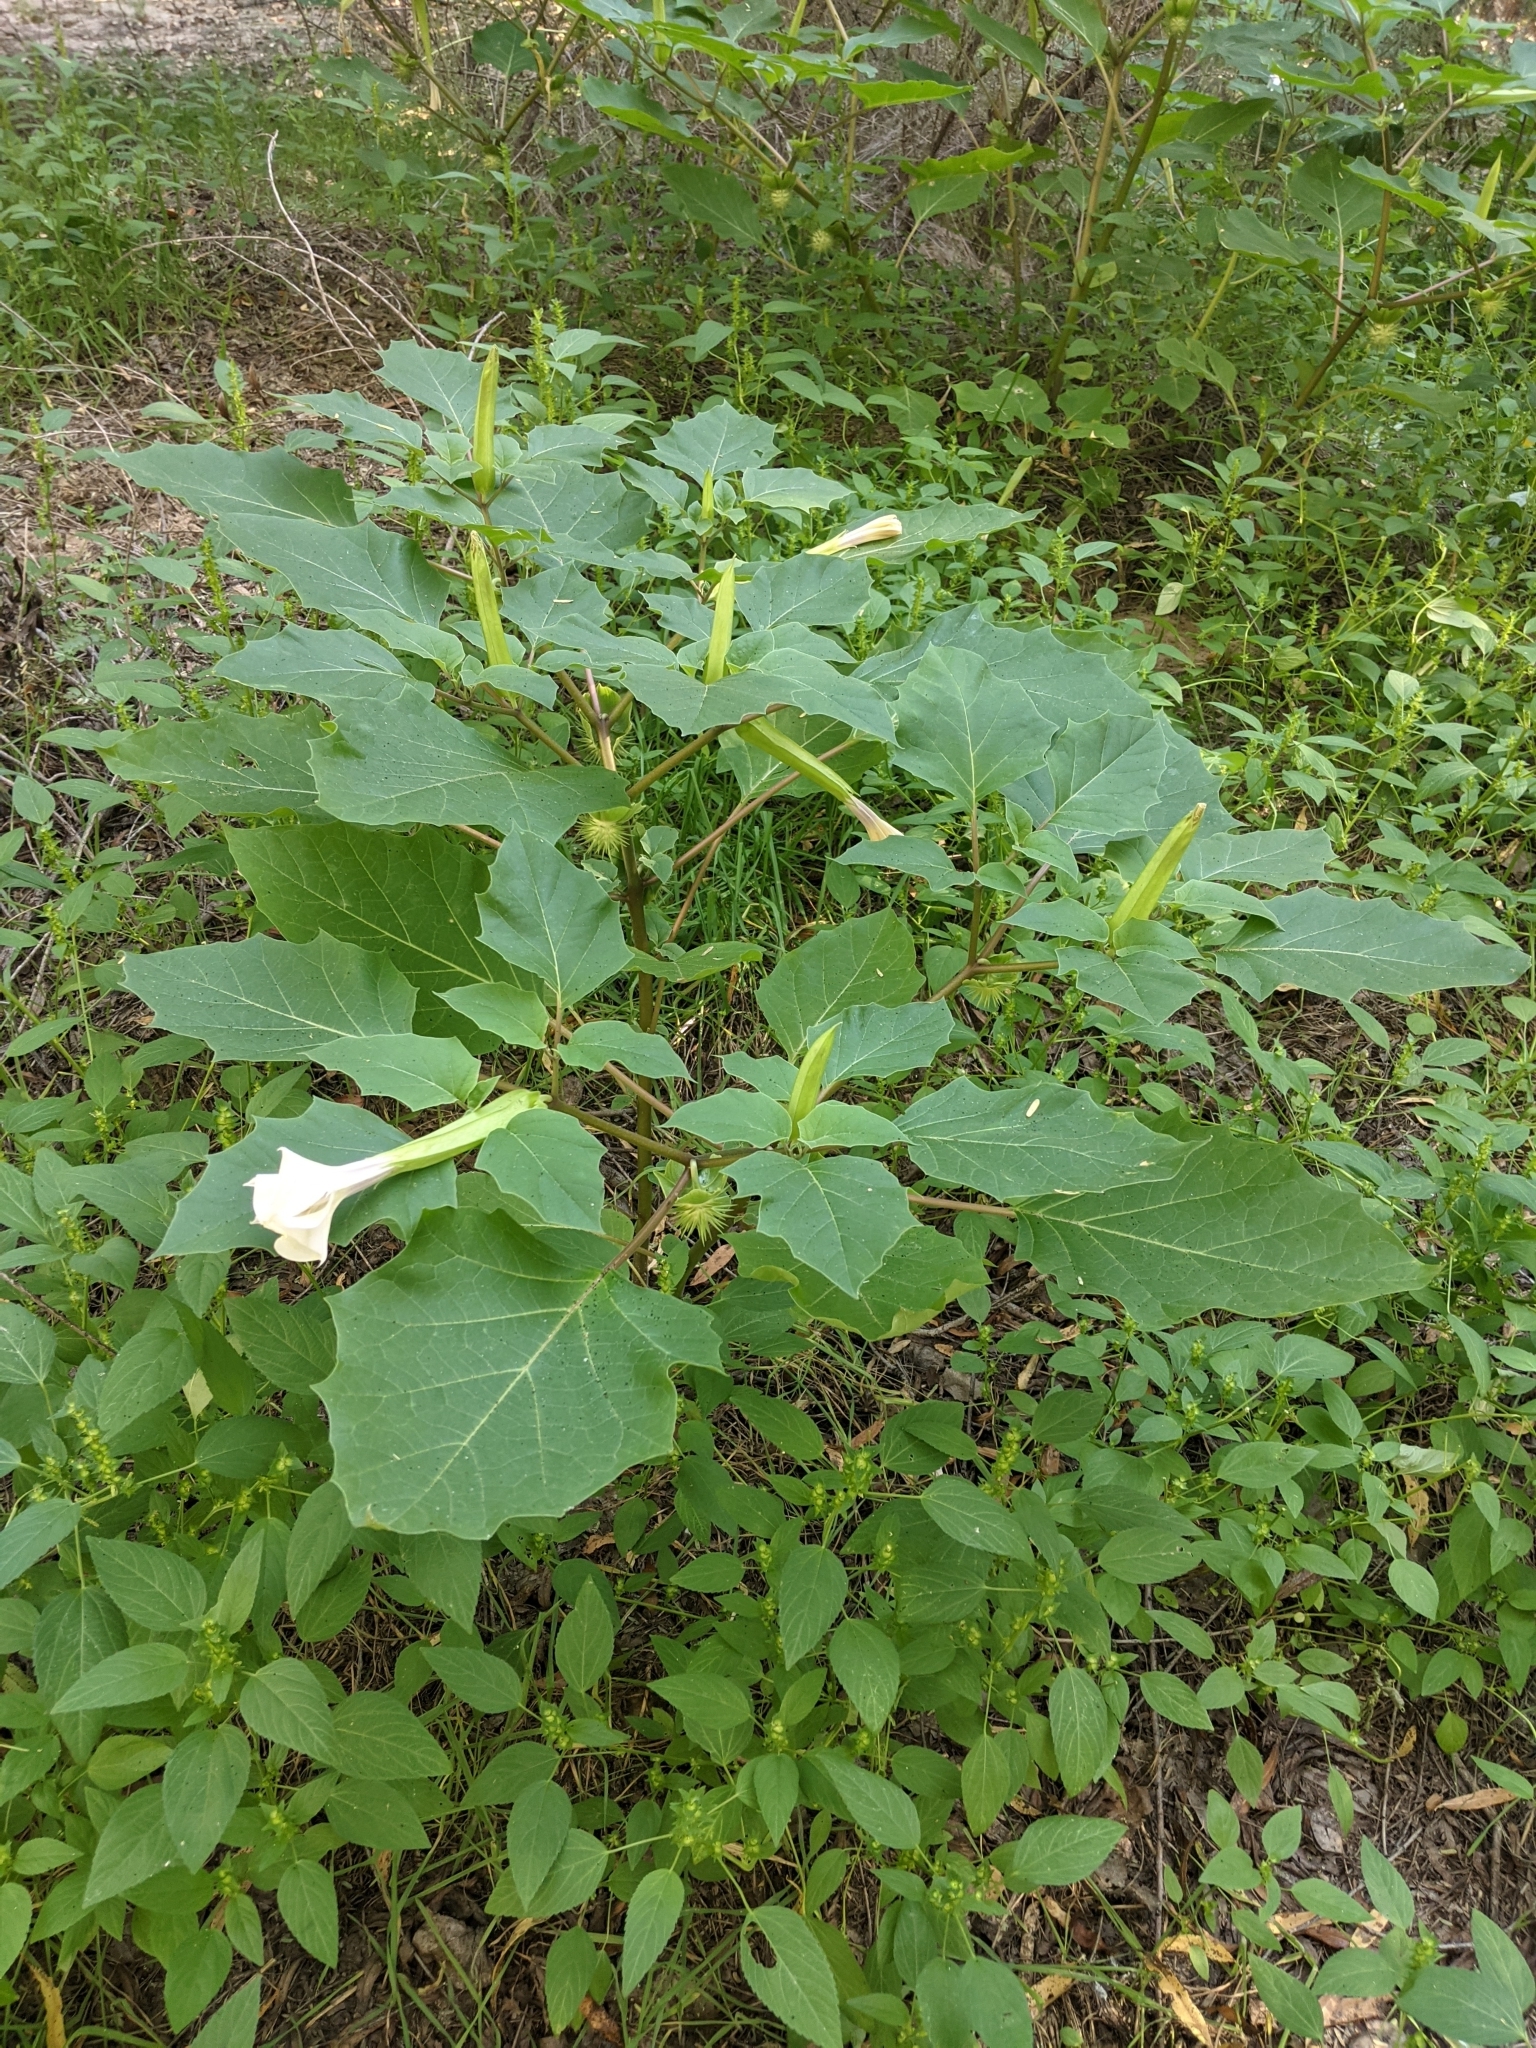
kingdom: Plantae
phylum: Tracheophyta
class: Magnoliopsida
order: Solanales
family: Solanaceae
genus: Datura
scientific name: Datura discolor
